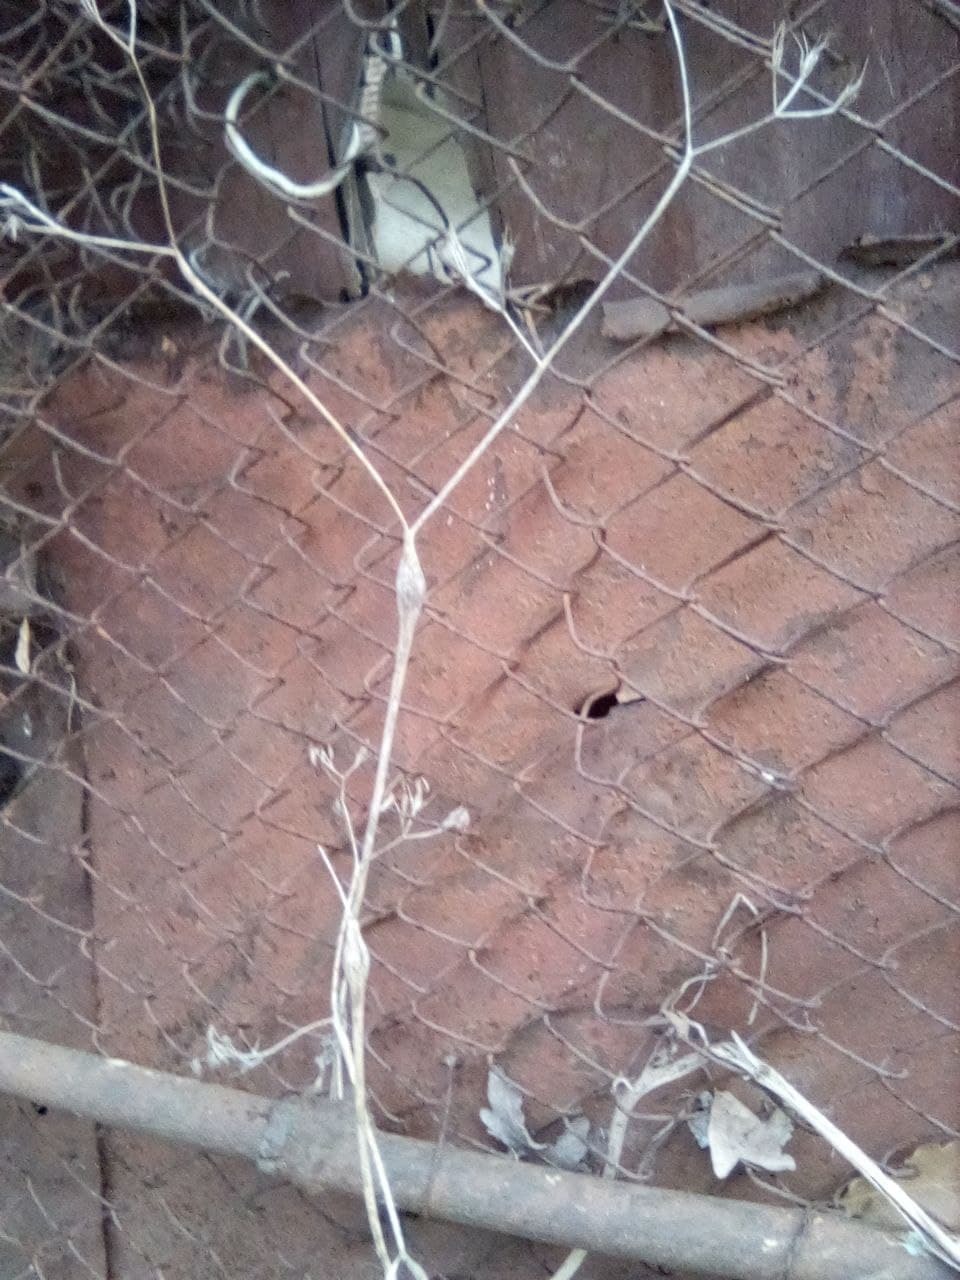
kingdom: Plantae
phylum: Tracheophyta
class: Magnoliopsida
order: Apiales
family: Apiaceae
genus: Chaerophyllum
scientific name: Chaerophyllum nodosum
